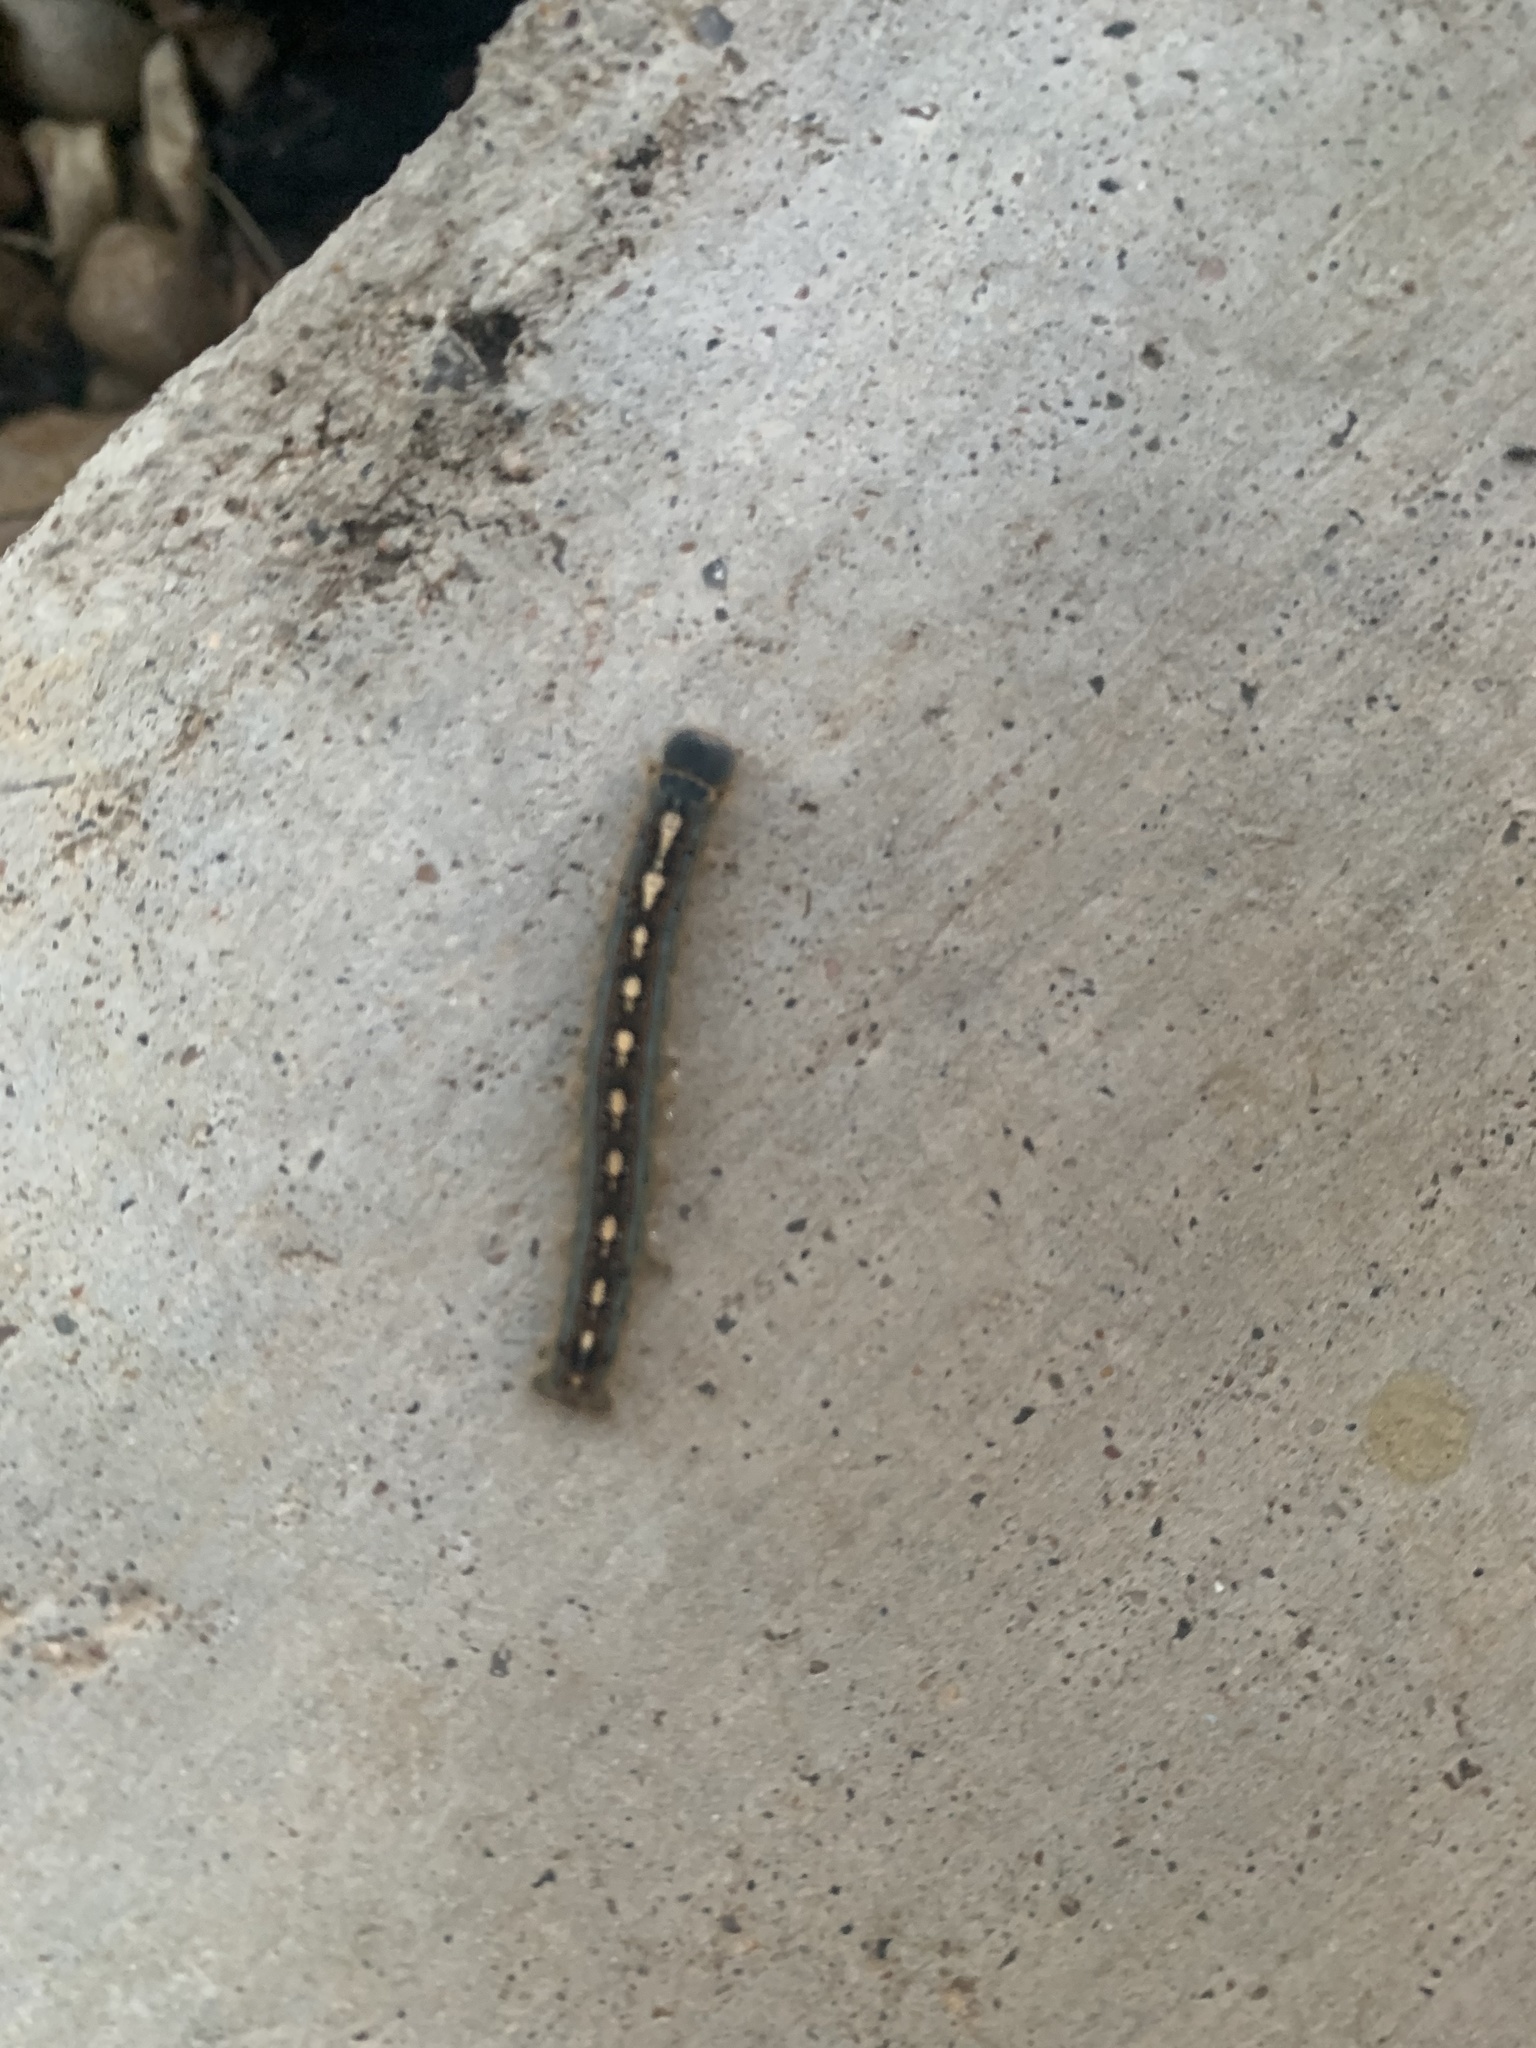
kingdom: Animalia
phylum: Arthropoda
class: Insecta
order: Lepidoptera
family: Lasiocampidae
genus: Malacosoma
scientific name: Malacosoma disstria
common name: Forest tent caterpillar
